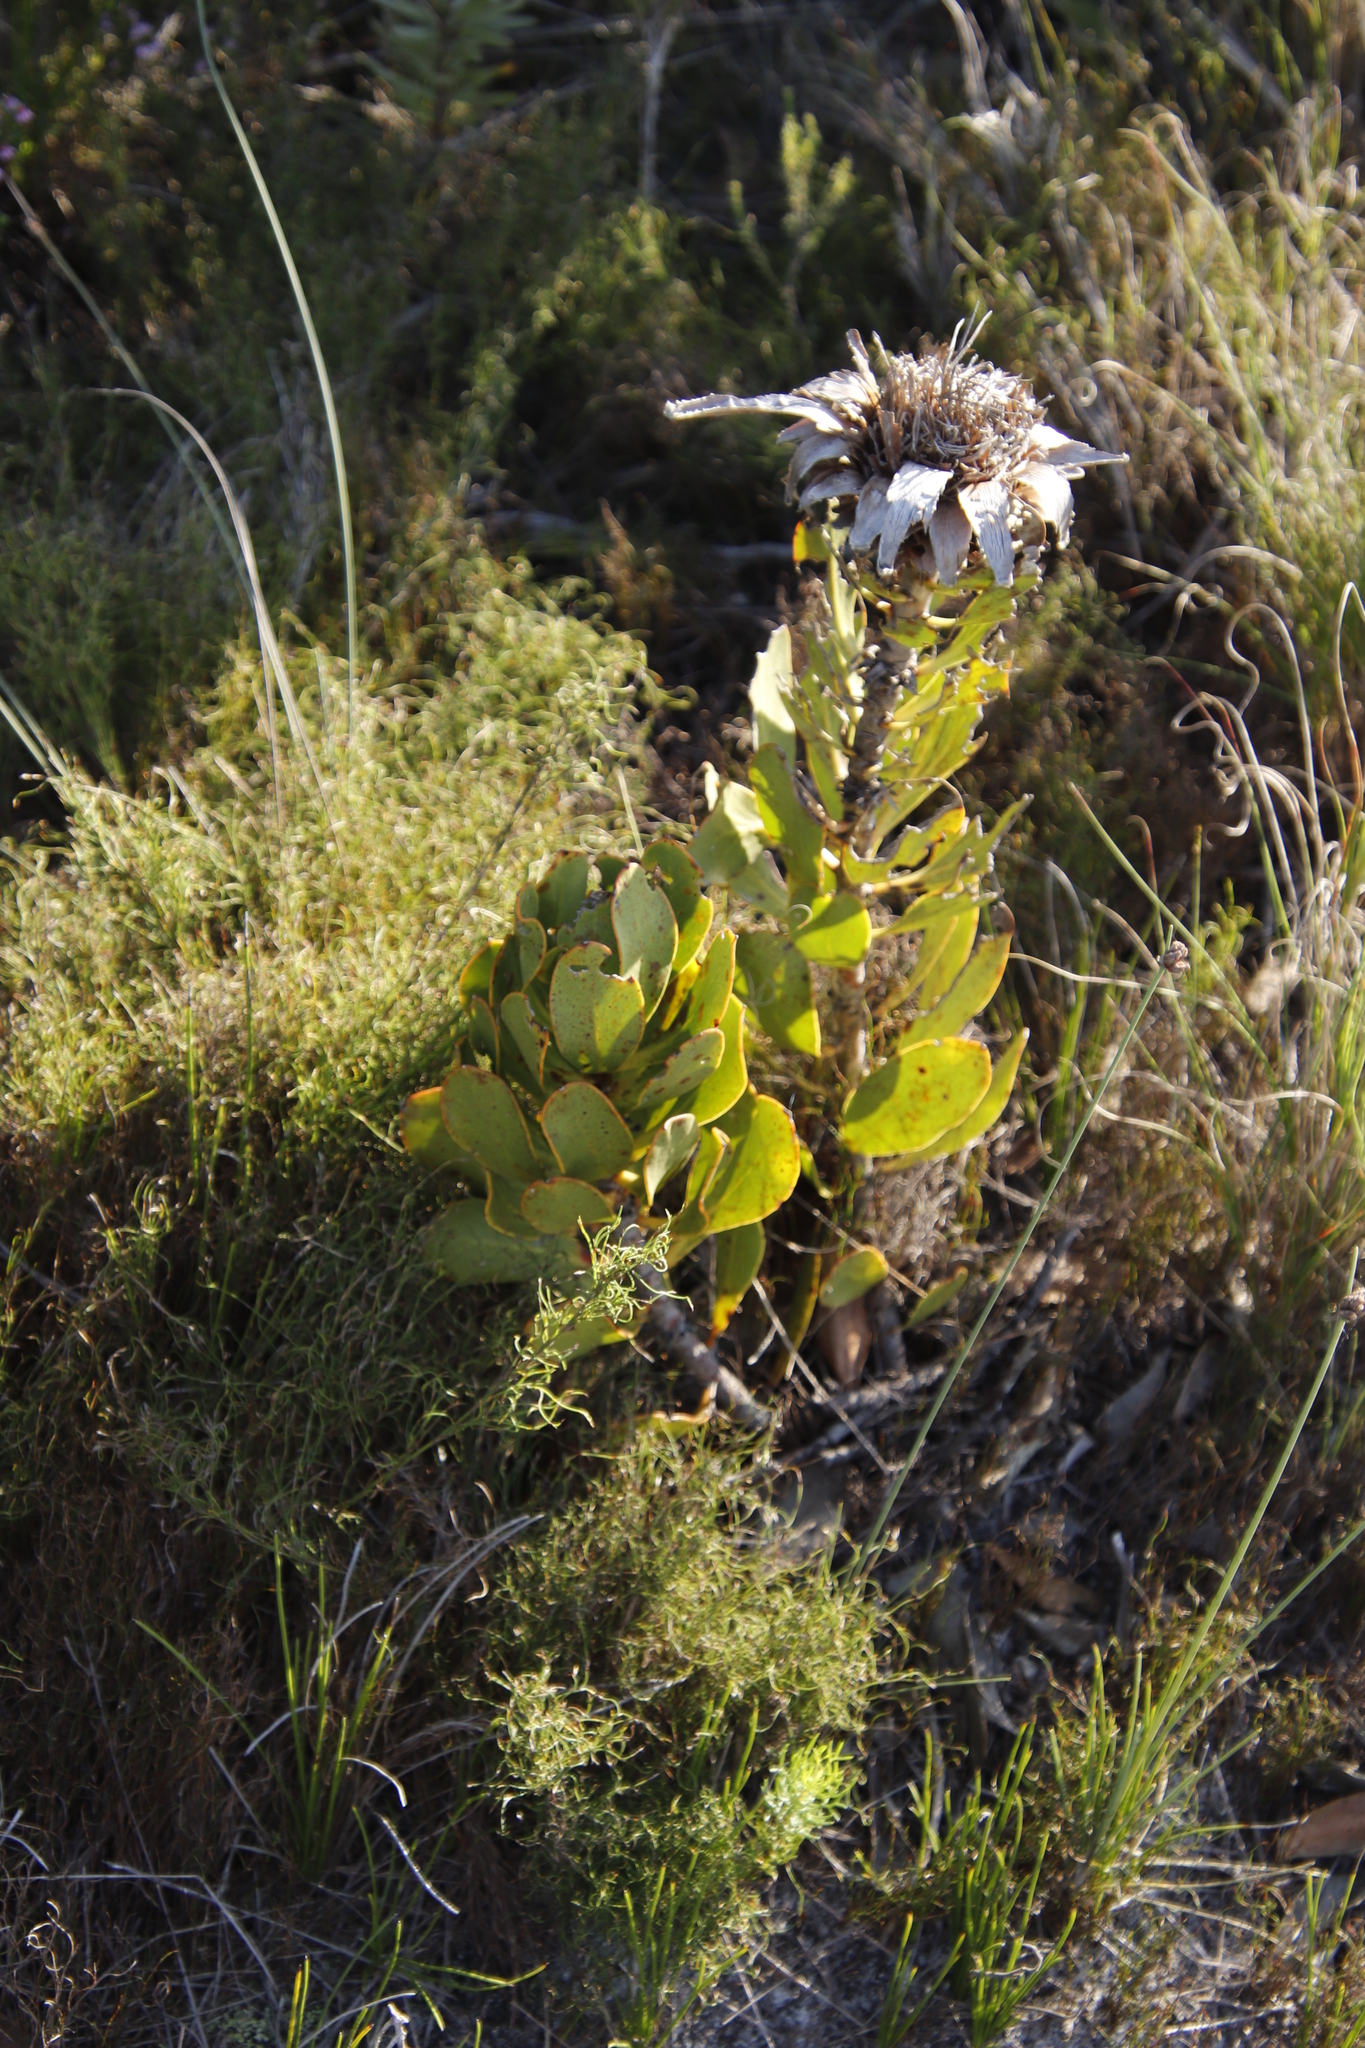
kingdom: Plantae
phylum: Tracheophyta
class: Magnoliopsida
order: Proteales
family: Proteaceae
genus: Protea
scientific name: Protea speciosa
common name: Brown-beard sugarbush
